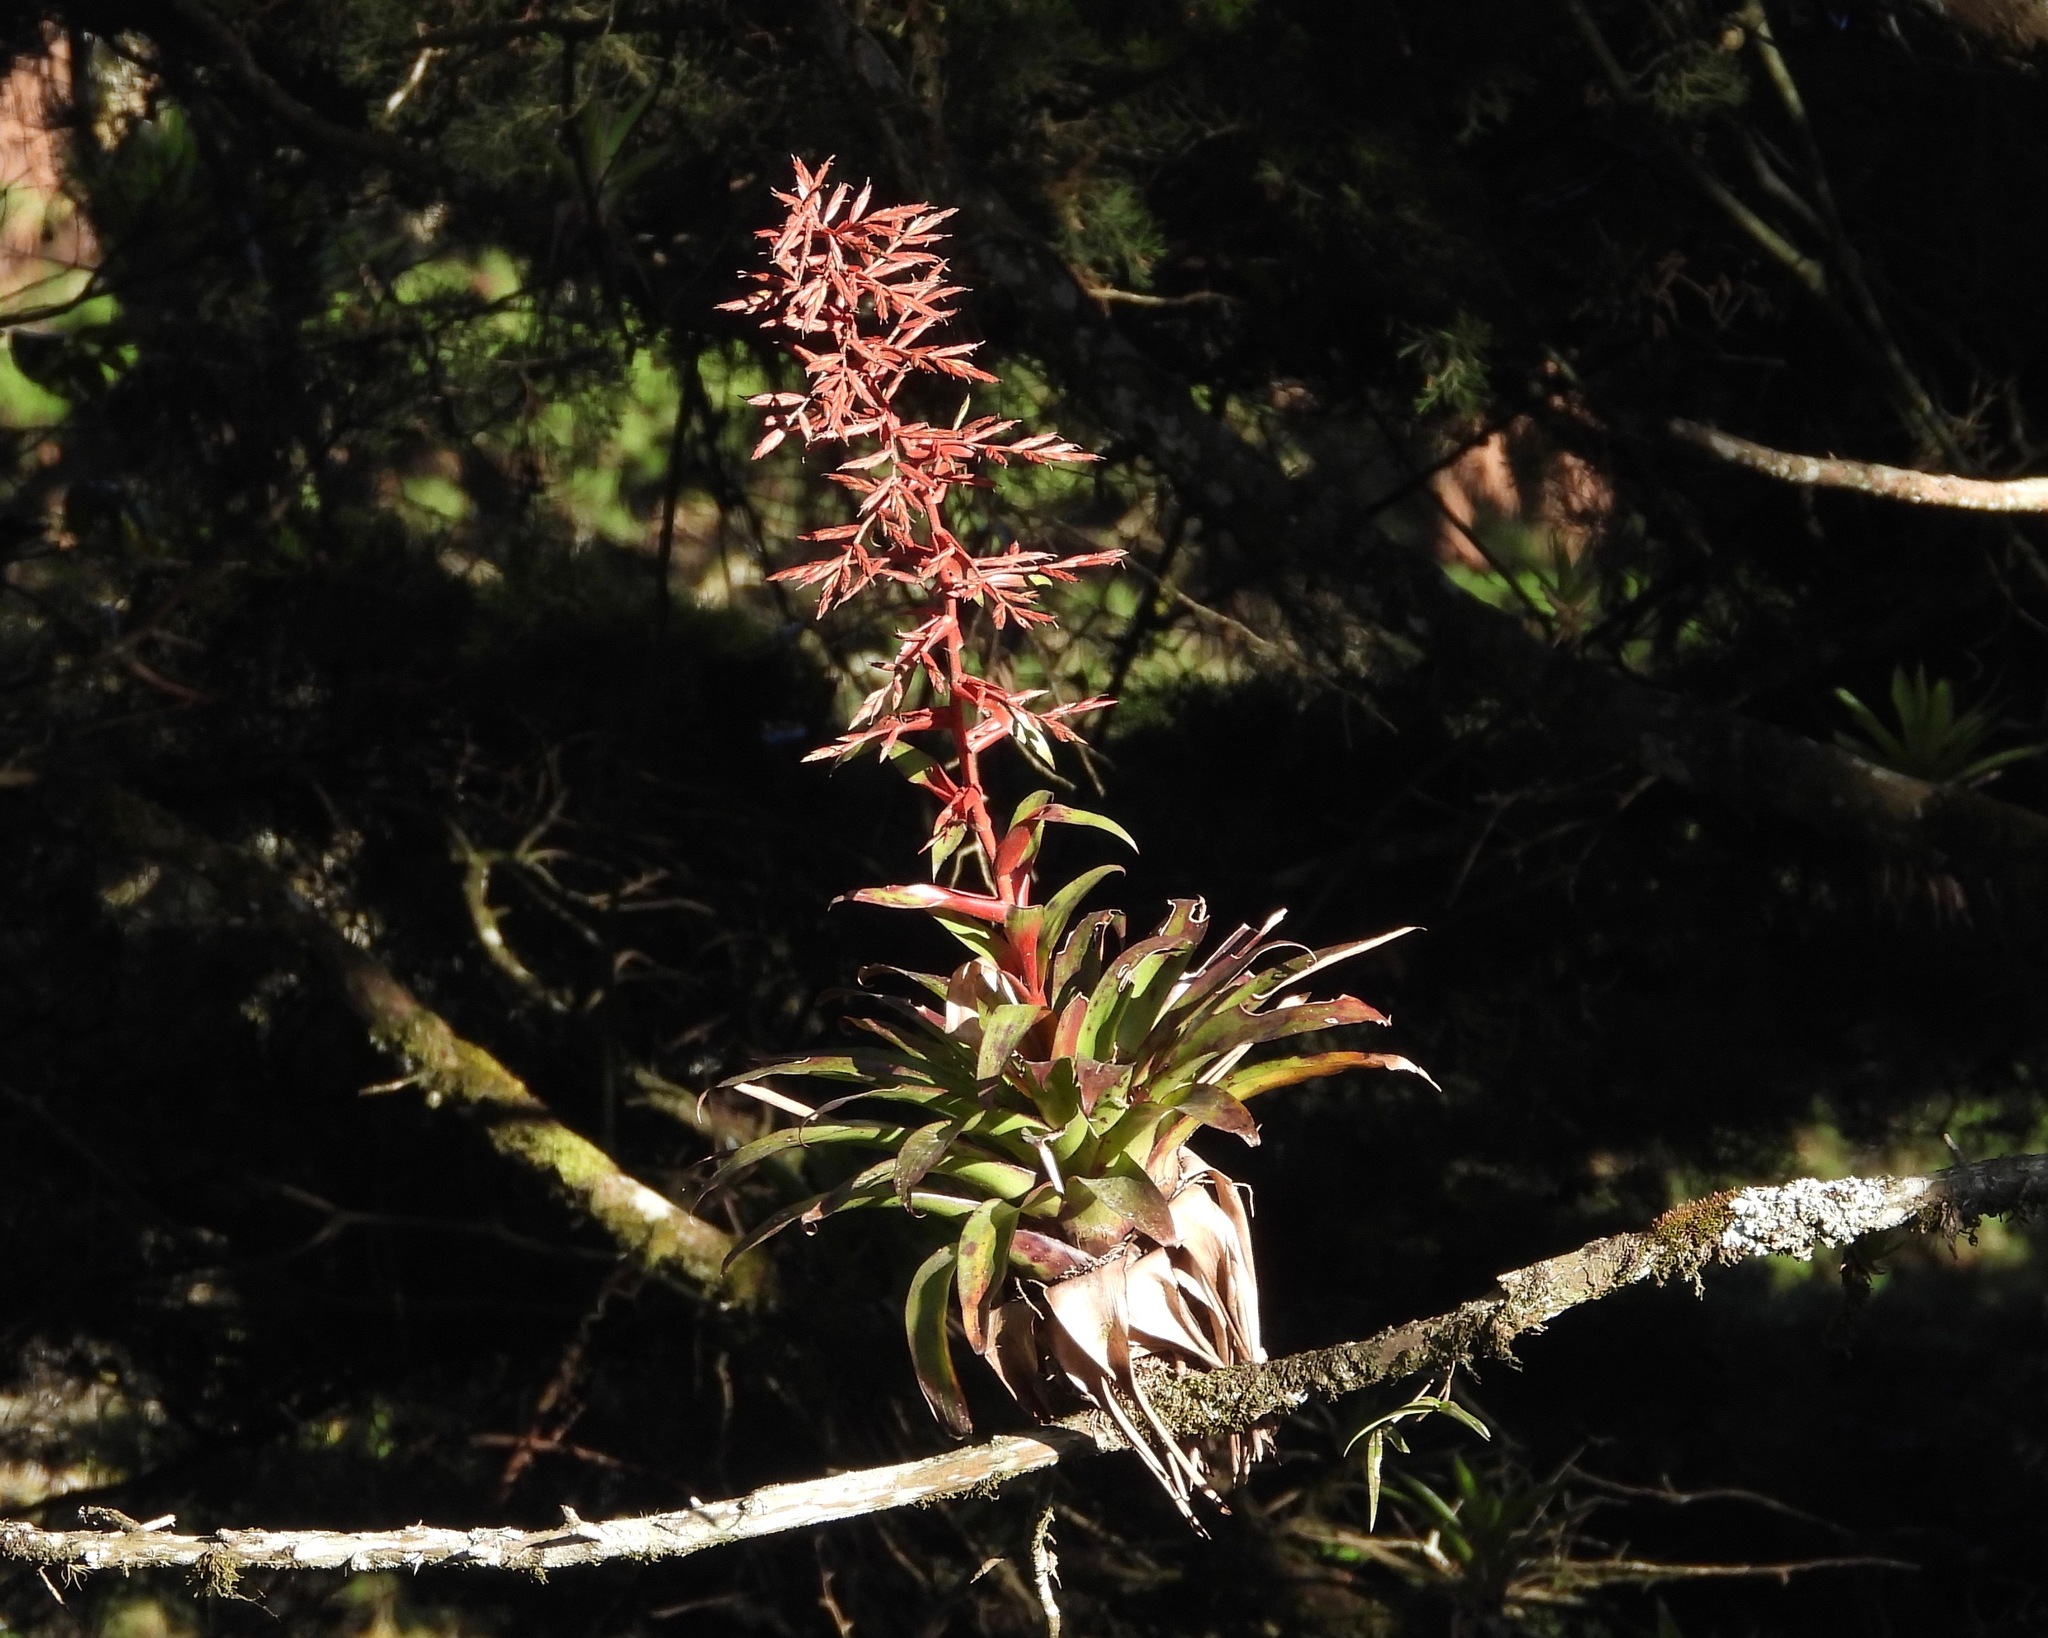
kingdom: Plantae
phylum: Tracheophyta
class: Liliopsida
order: Poales
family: Bromeliaceae
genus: Tillandsia
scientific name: Tillandsia guatemalensis
